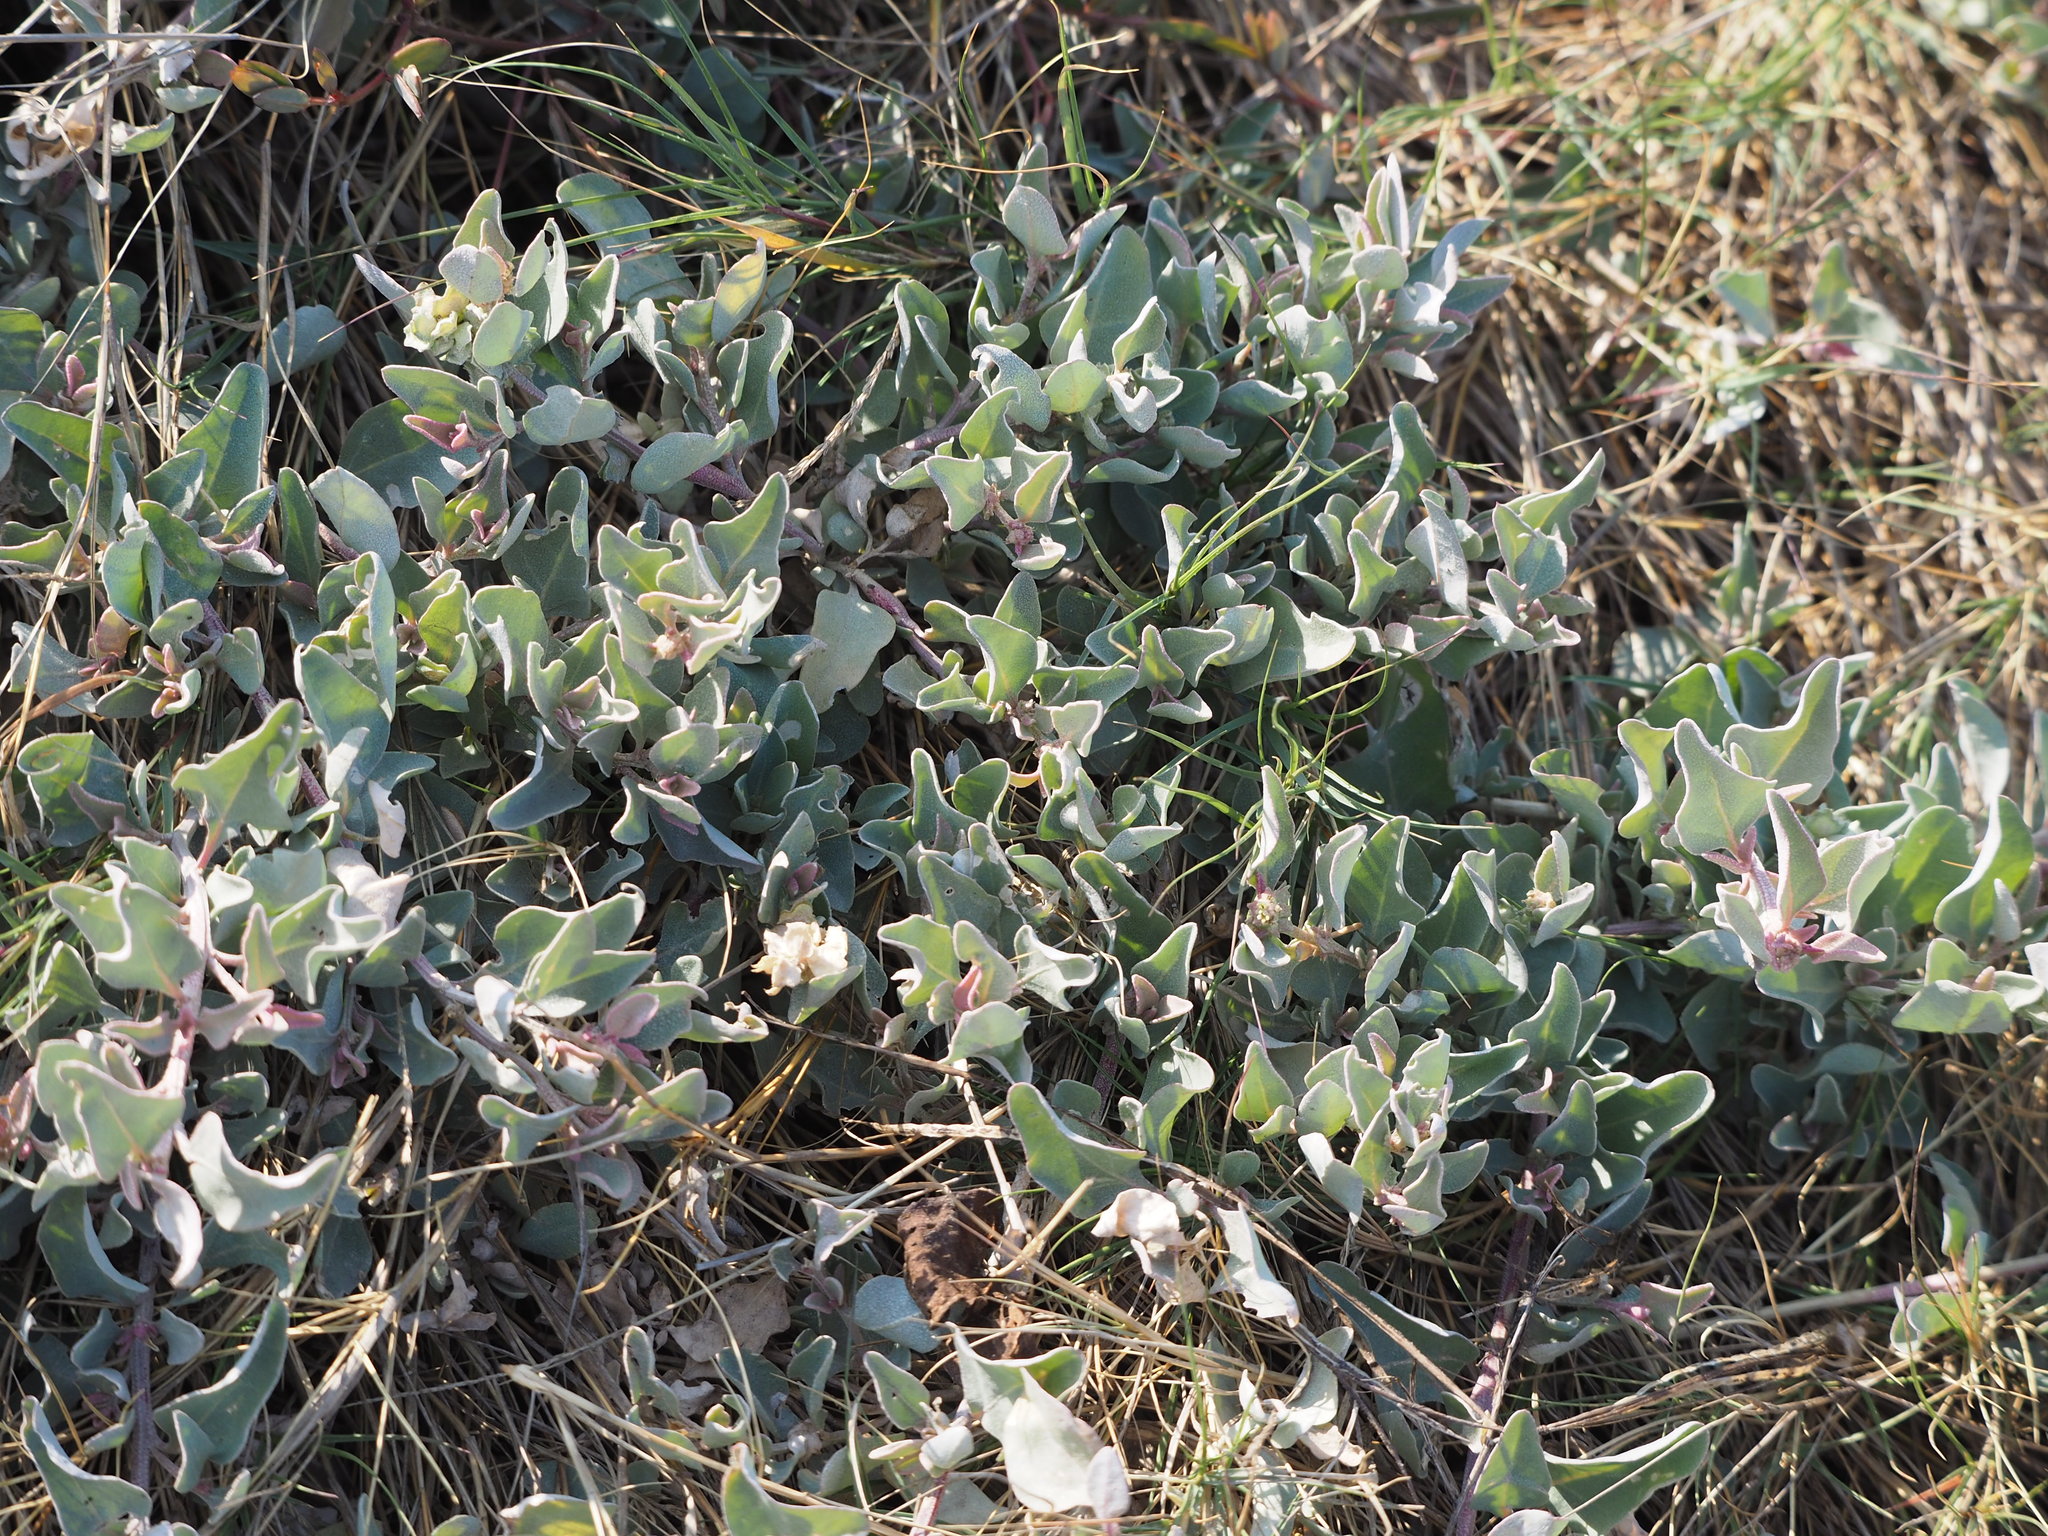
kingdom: Plantae
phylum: Tracheophyta
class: Magnoliopsida
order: Caryophyllales
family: Amaranthaceae
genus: Atriplex
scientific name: Atriplex maximowicziana
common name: Maximowicz's saltbush
